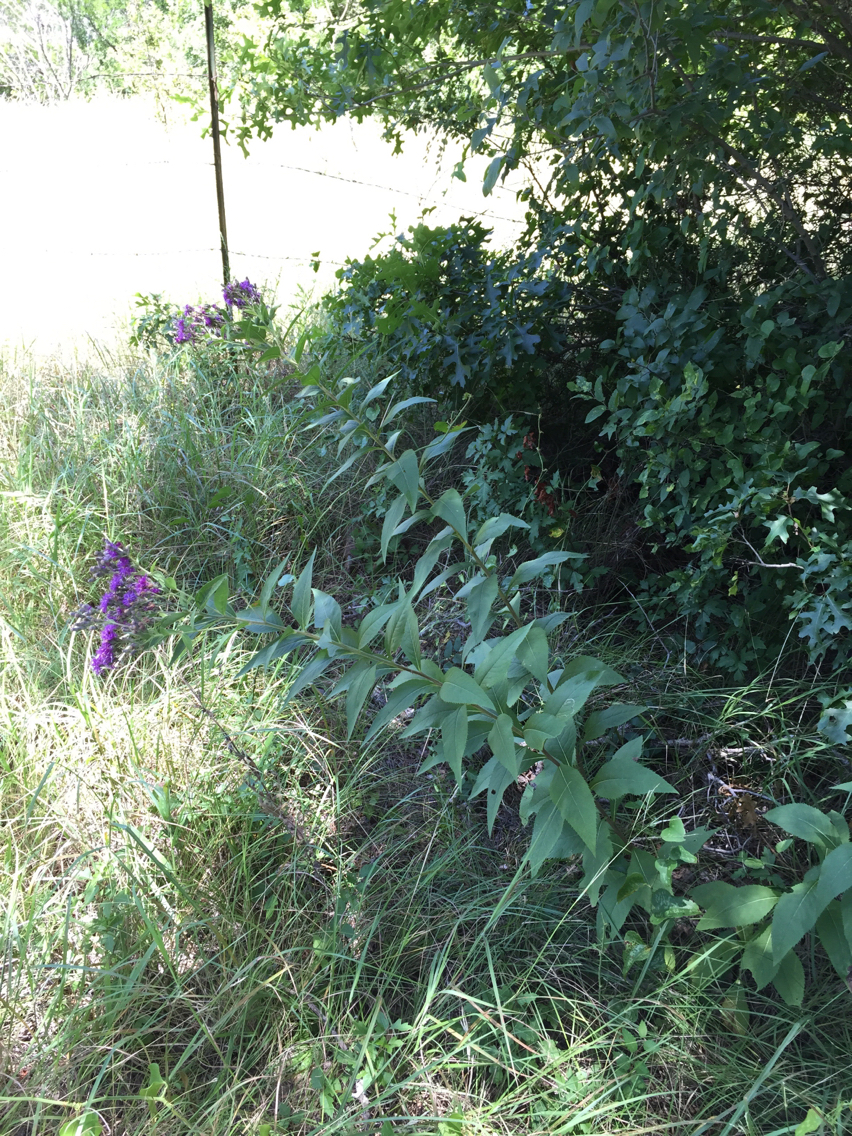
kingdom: Plantae
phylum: Tracheophyta
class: Magnoliopsida
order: Asterales
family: Asteraceae
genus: Vernonia
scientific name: Vernonia baldwinii
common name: Western ironweed
